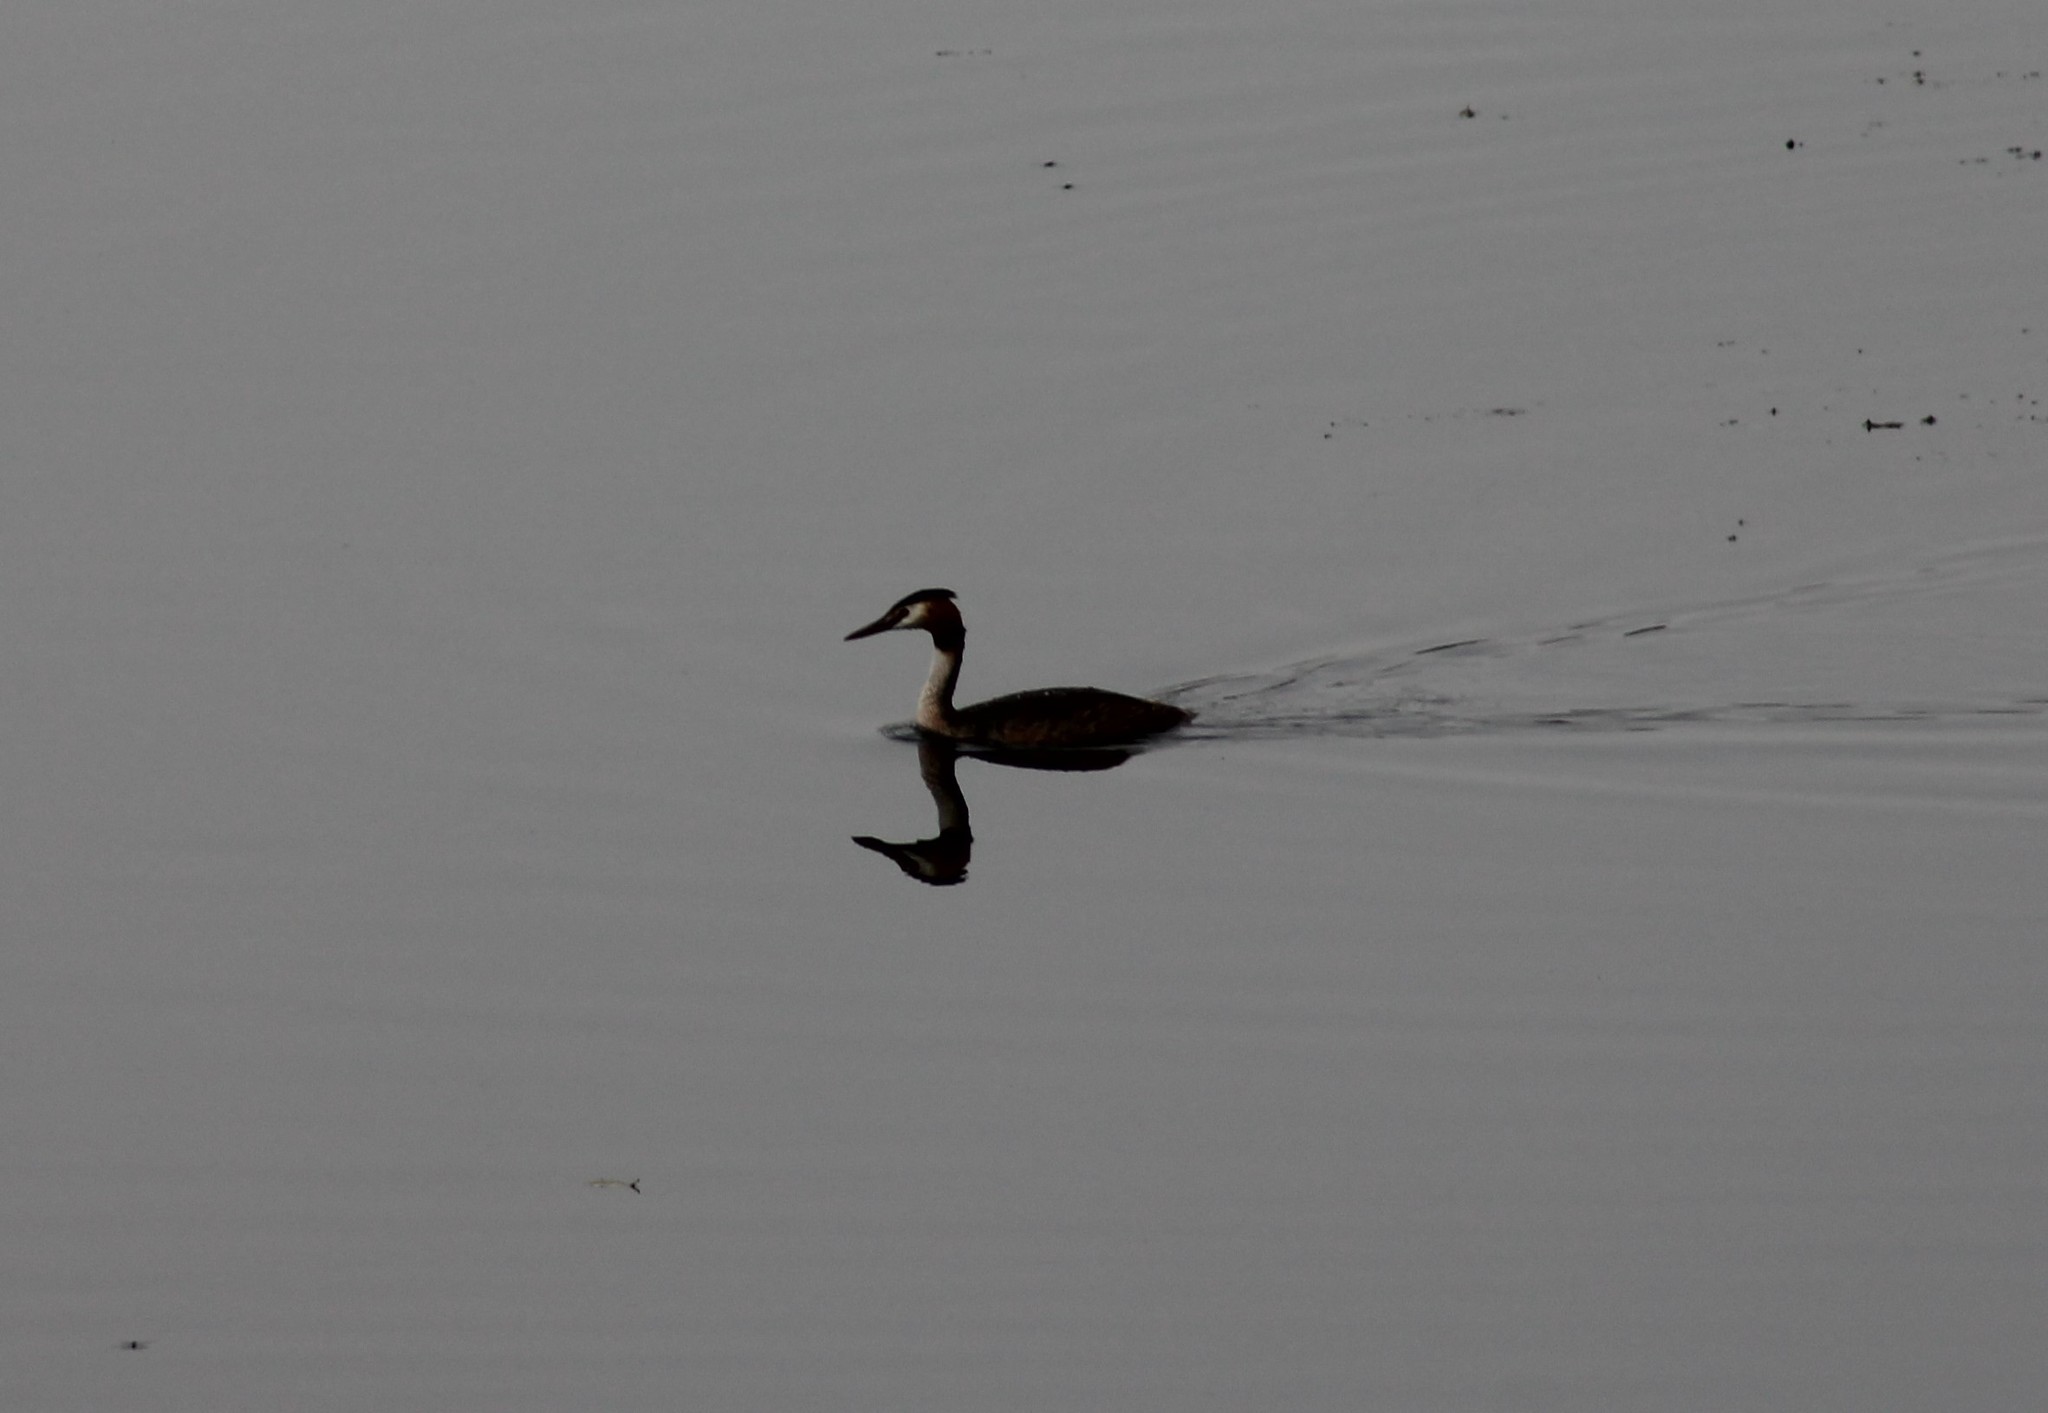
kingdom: Animalia
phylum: Chordata
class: Aves
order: Podicipediformes
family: Podicipedidae
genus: Podiceps
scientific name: Podiceps cristatus
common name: Great crested grebe
